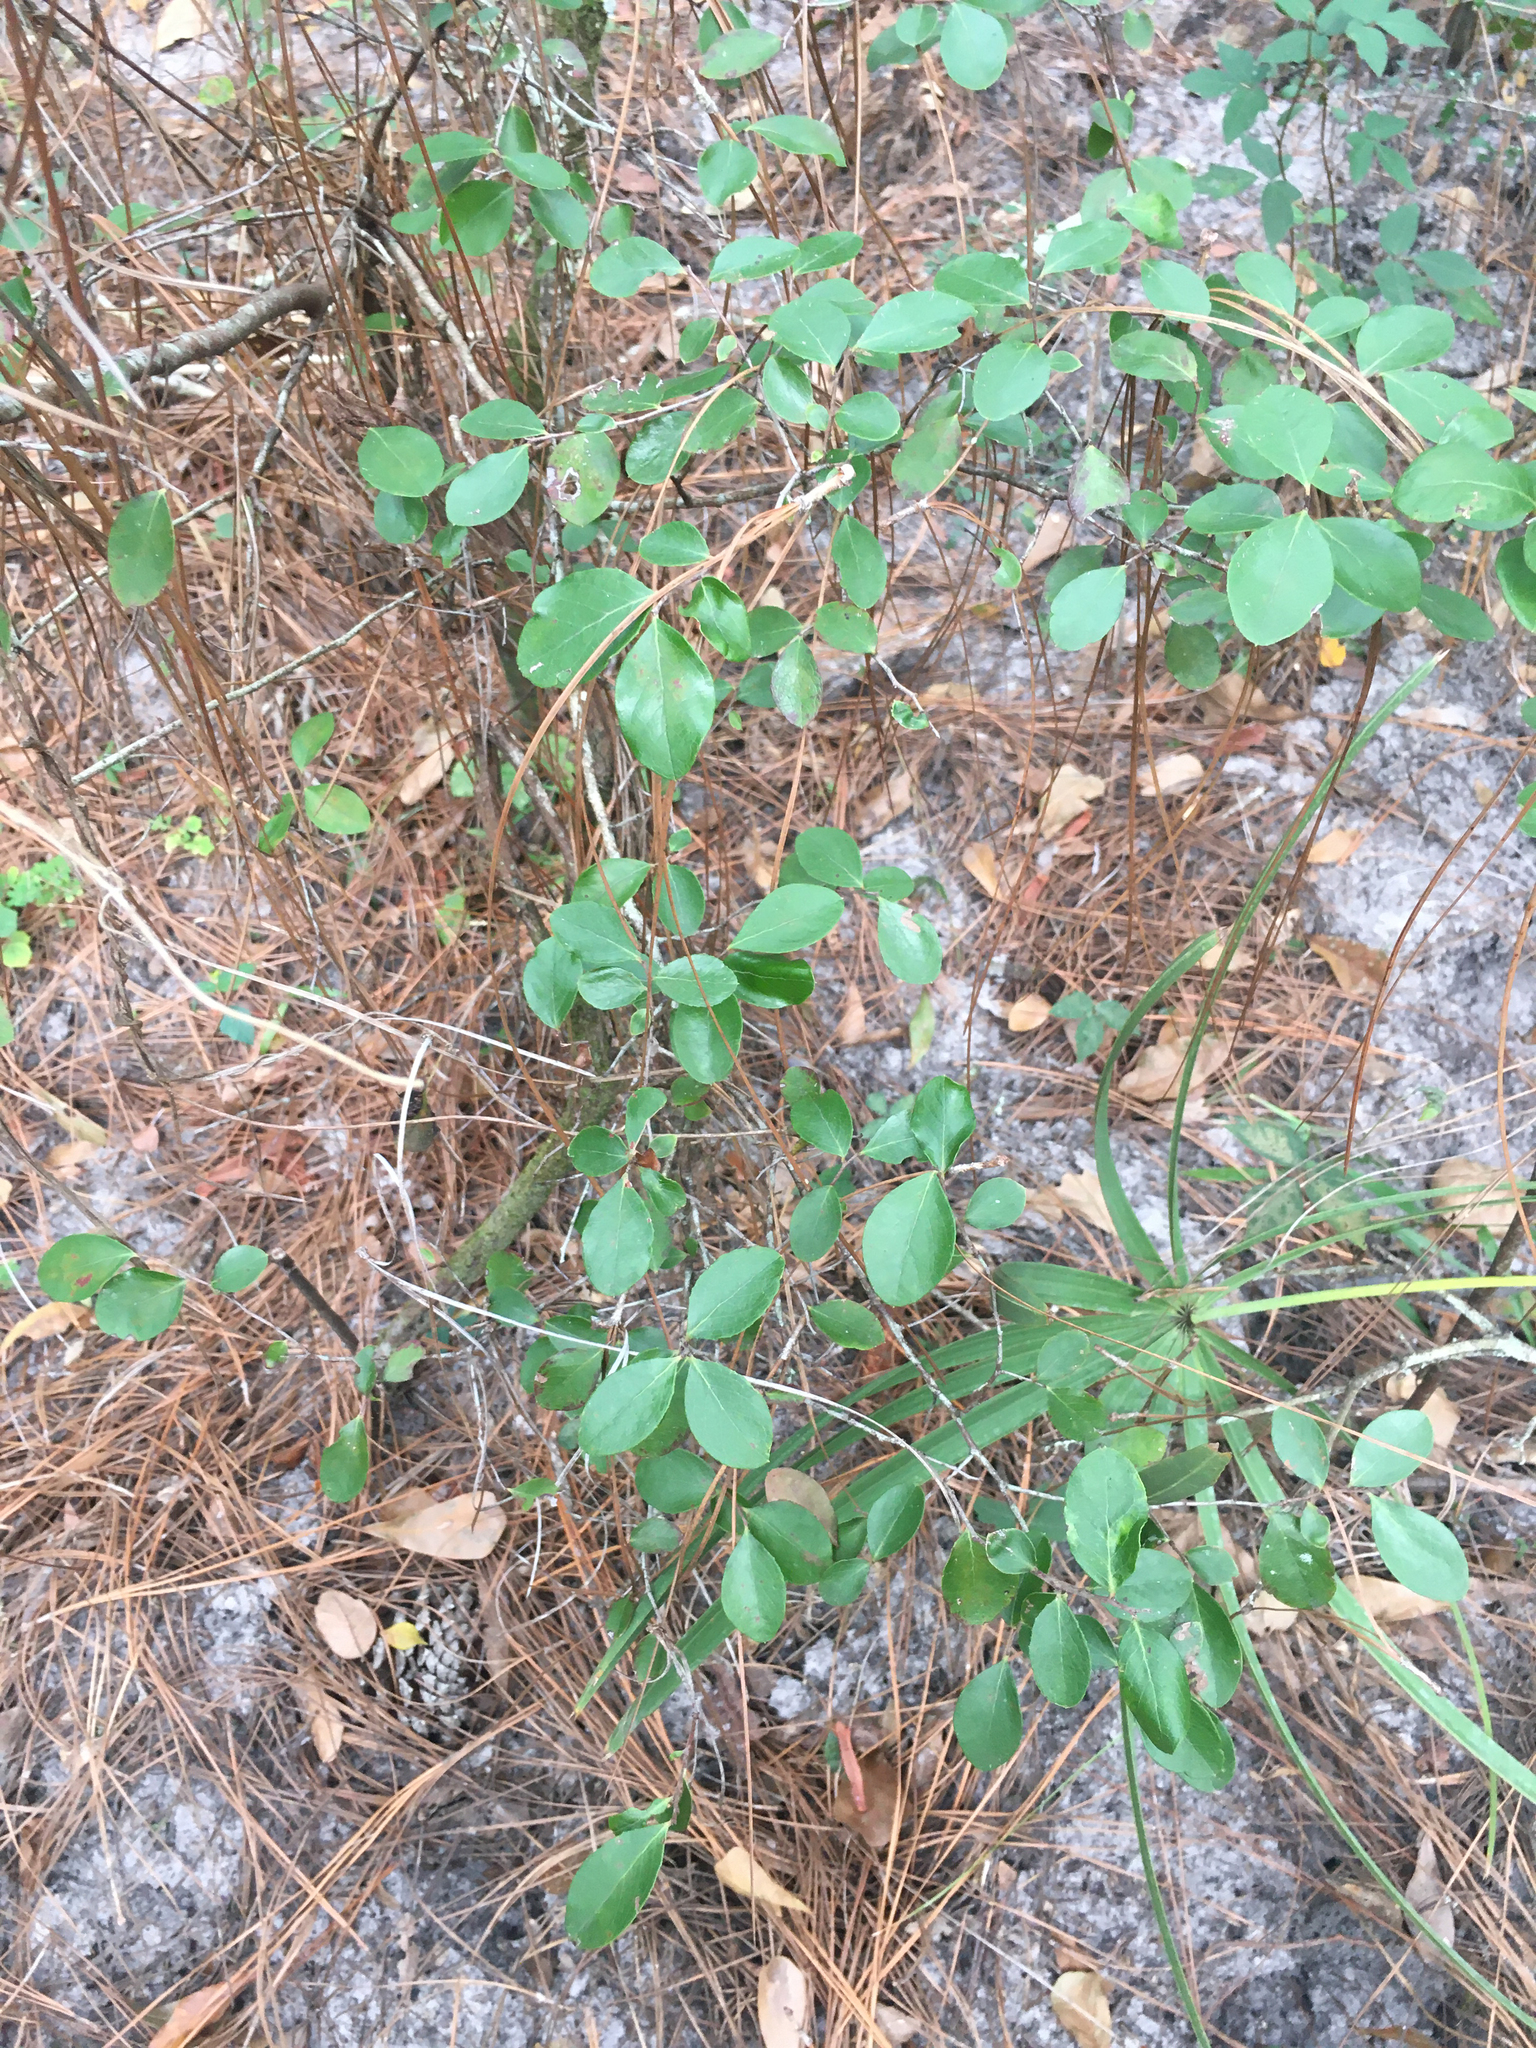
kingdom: Plantae
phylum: Tracheophyta
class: Magnoliopsida
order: Ericales
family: Ericaceae
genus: Vaccinium
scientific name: Vaccinium arboreum
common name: Farkleberry
